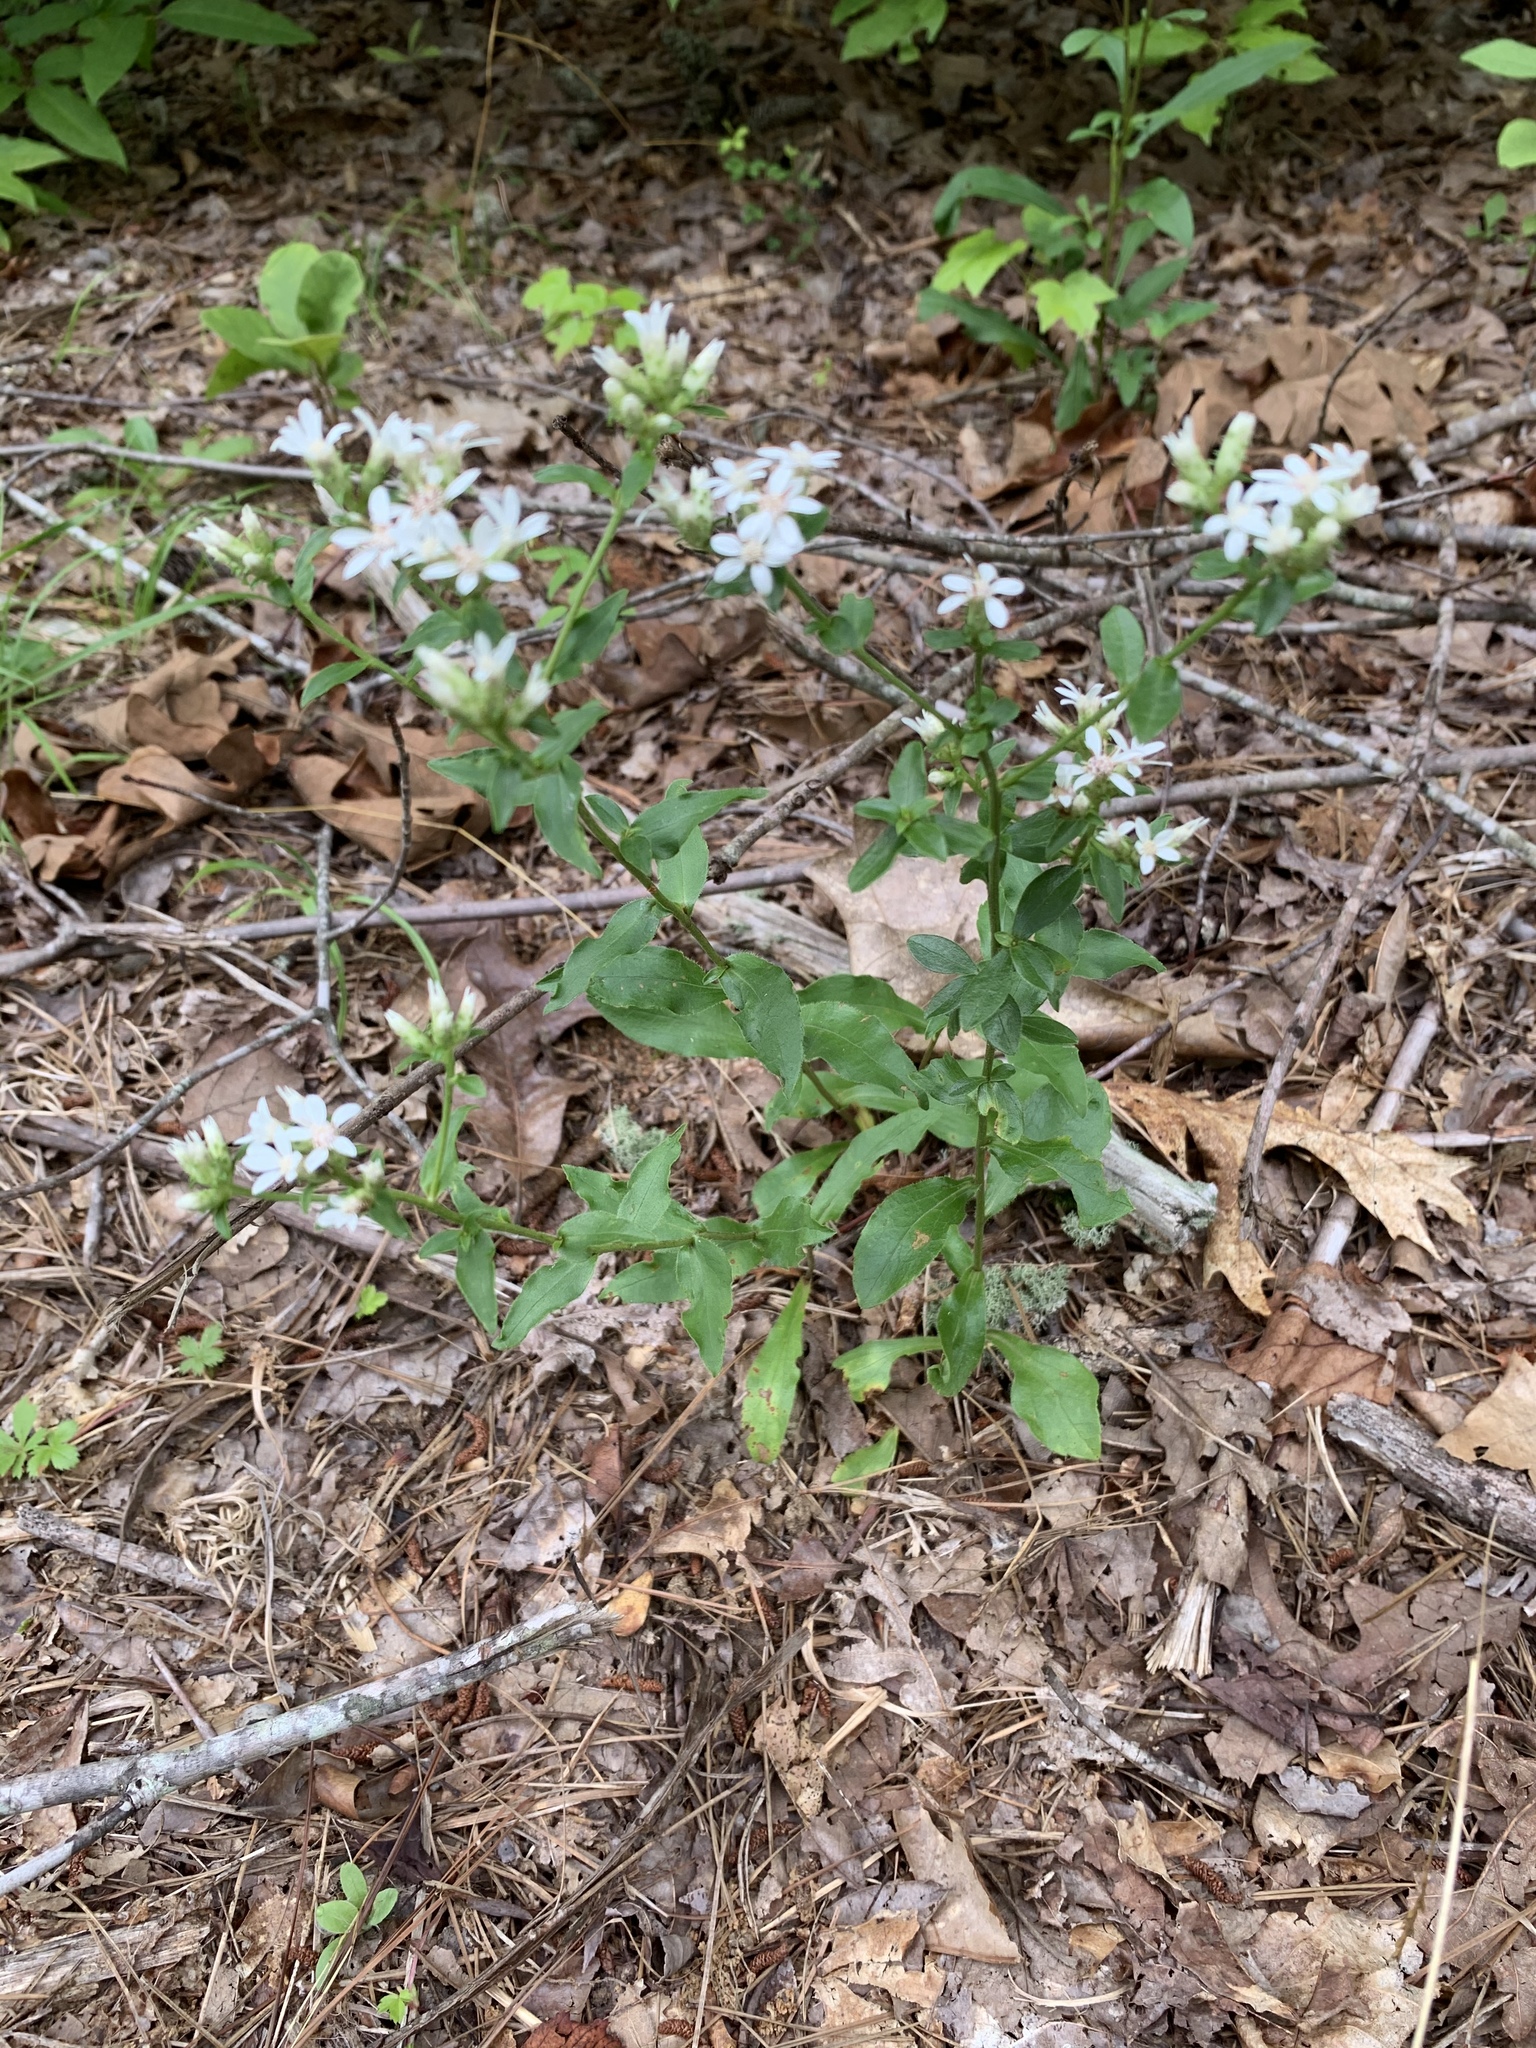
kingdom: Plantae
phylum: Tracheophyta
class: Magnoliopsida
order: Asterales
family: Asteraceae
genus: Sericocarpus
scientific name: Sericocarpus asteroides
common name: Toothed white-top aster
